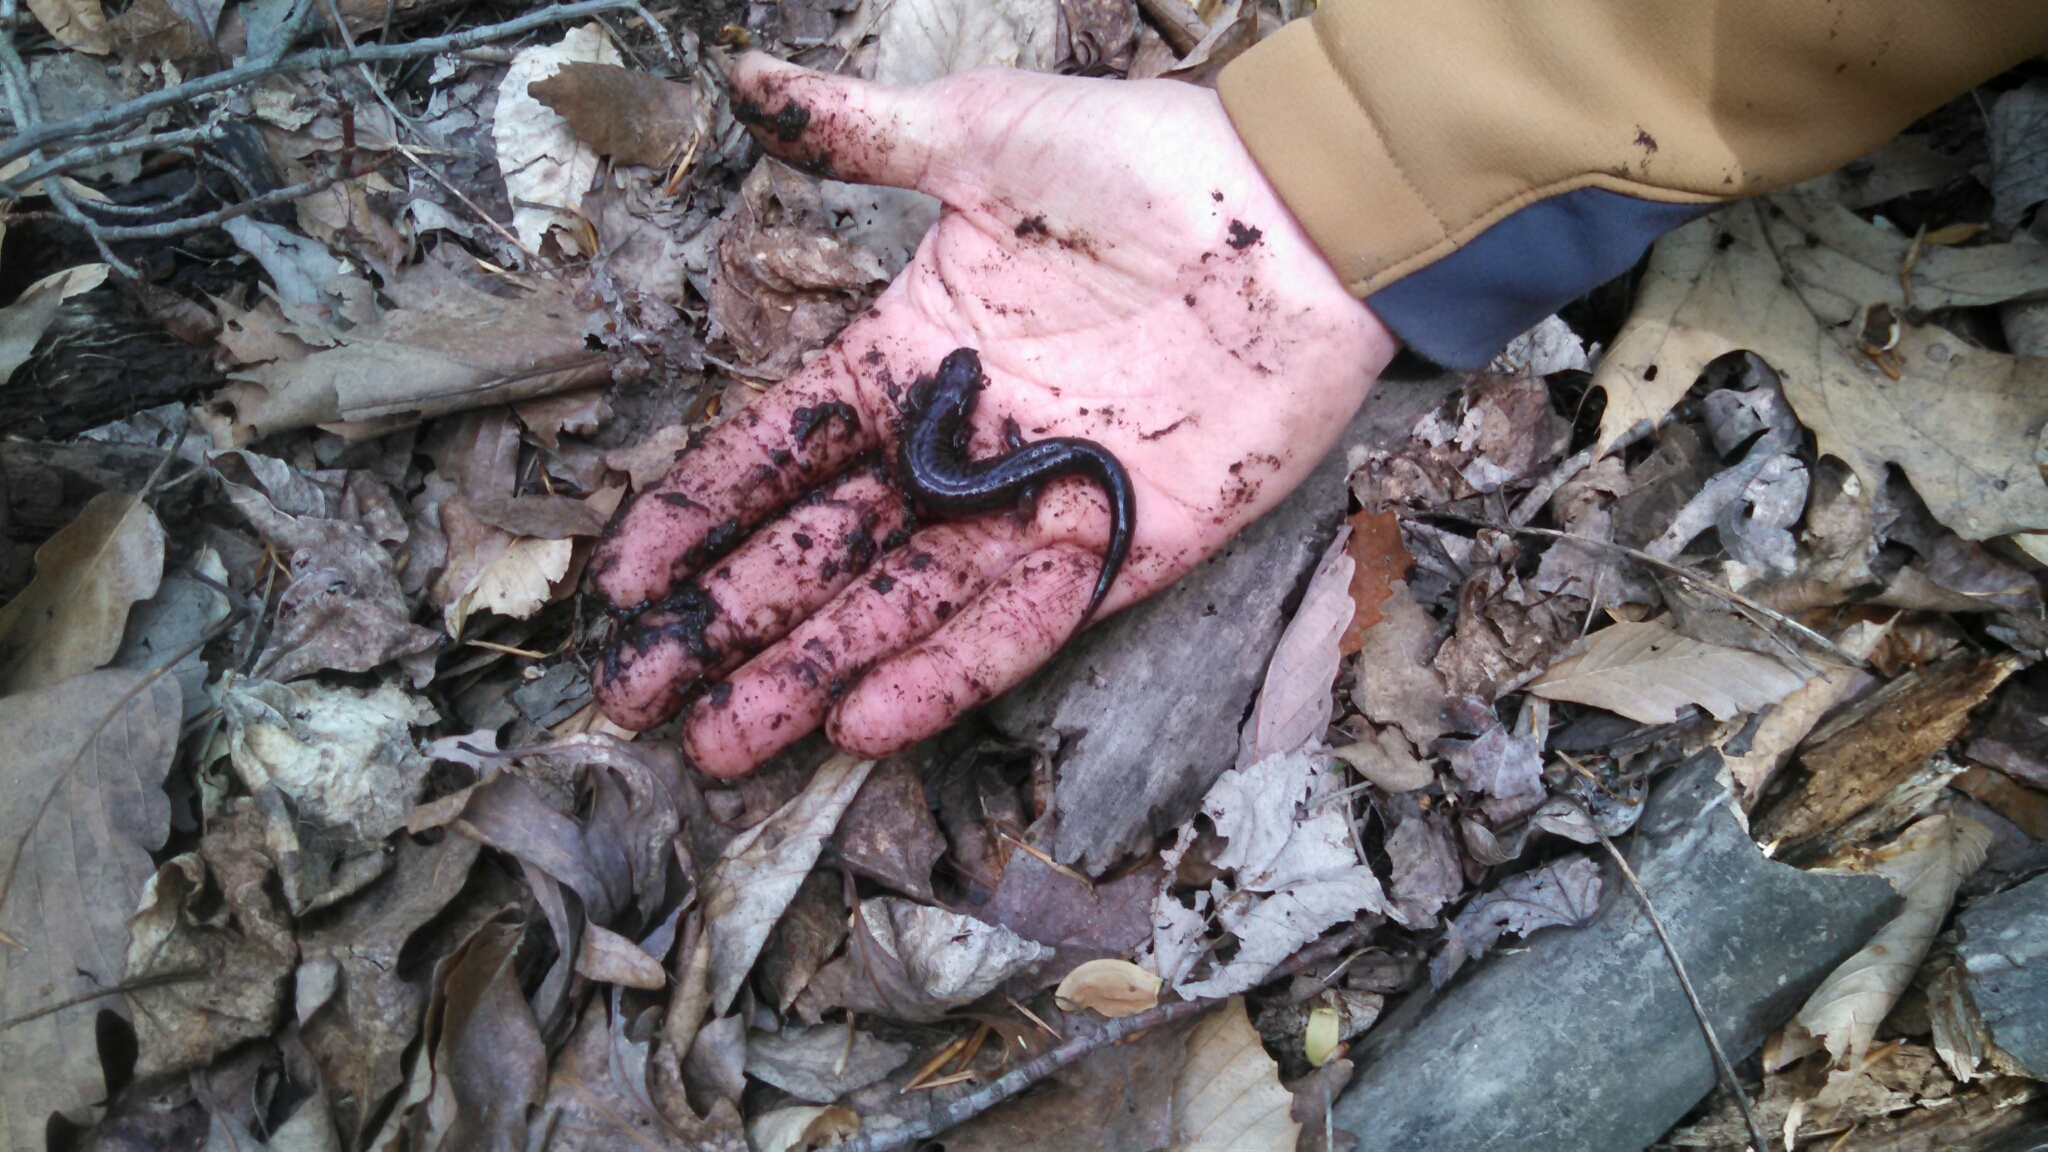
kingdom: Animalia
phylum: Chordata
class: Amphibia
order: Caudata
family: Plethodontidae
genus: Desmognathus
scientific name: Desmognathus fuscus
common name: Northern dusky salamander
